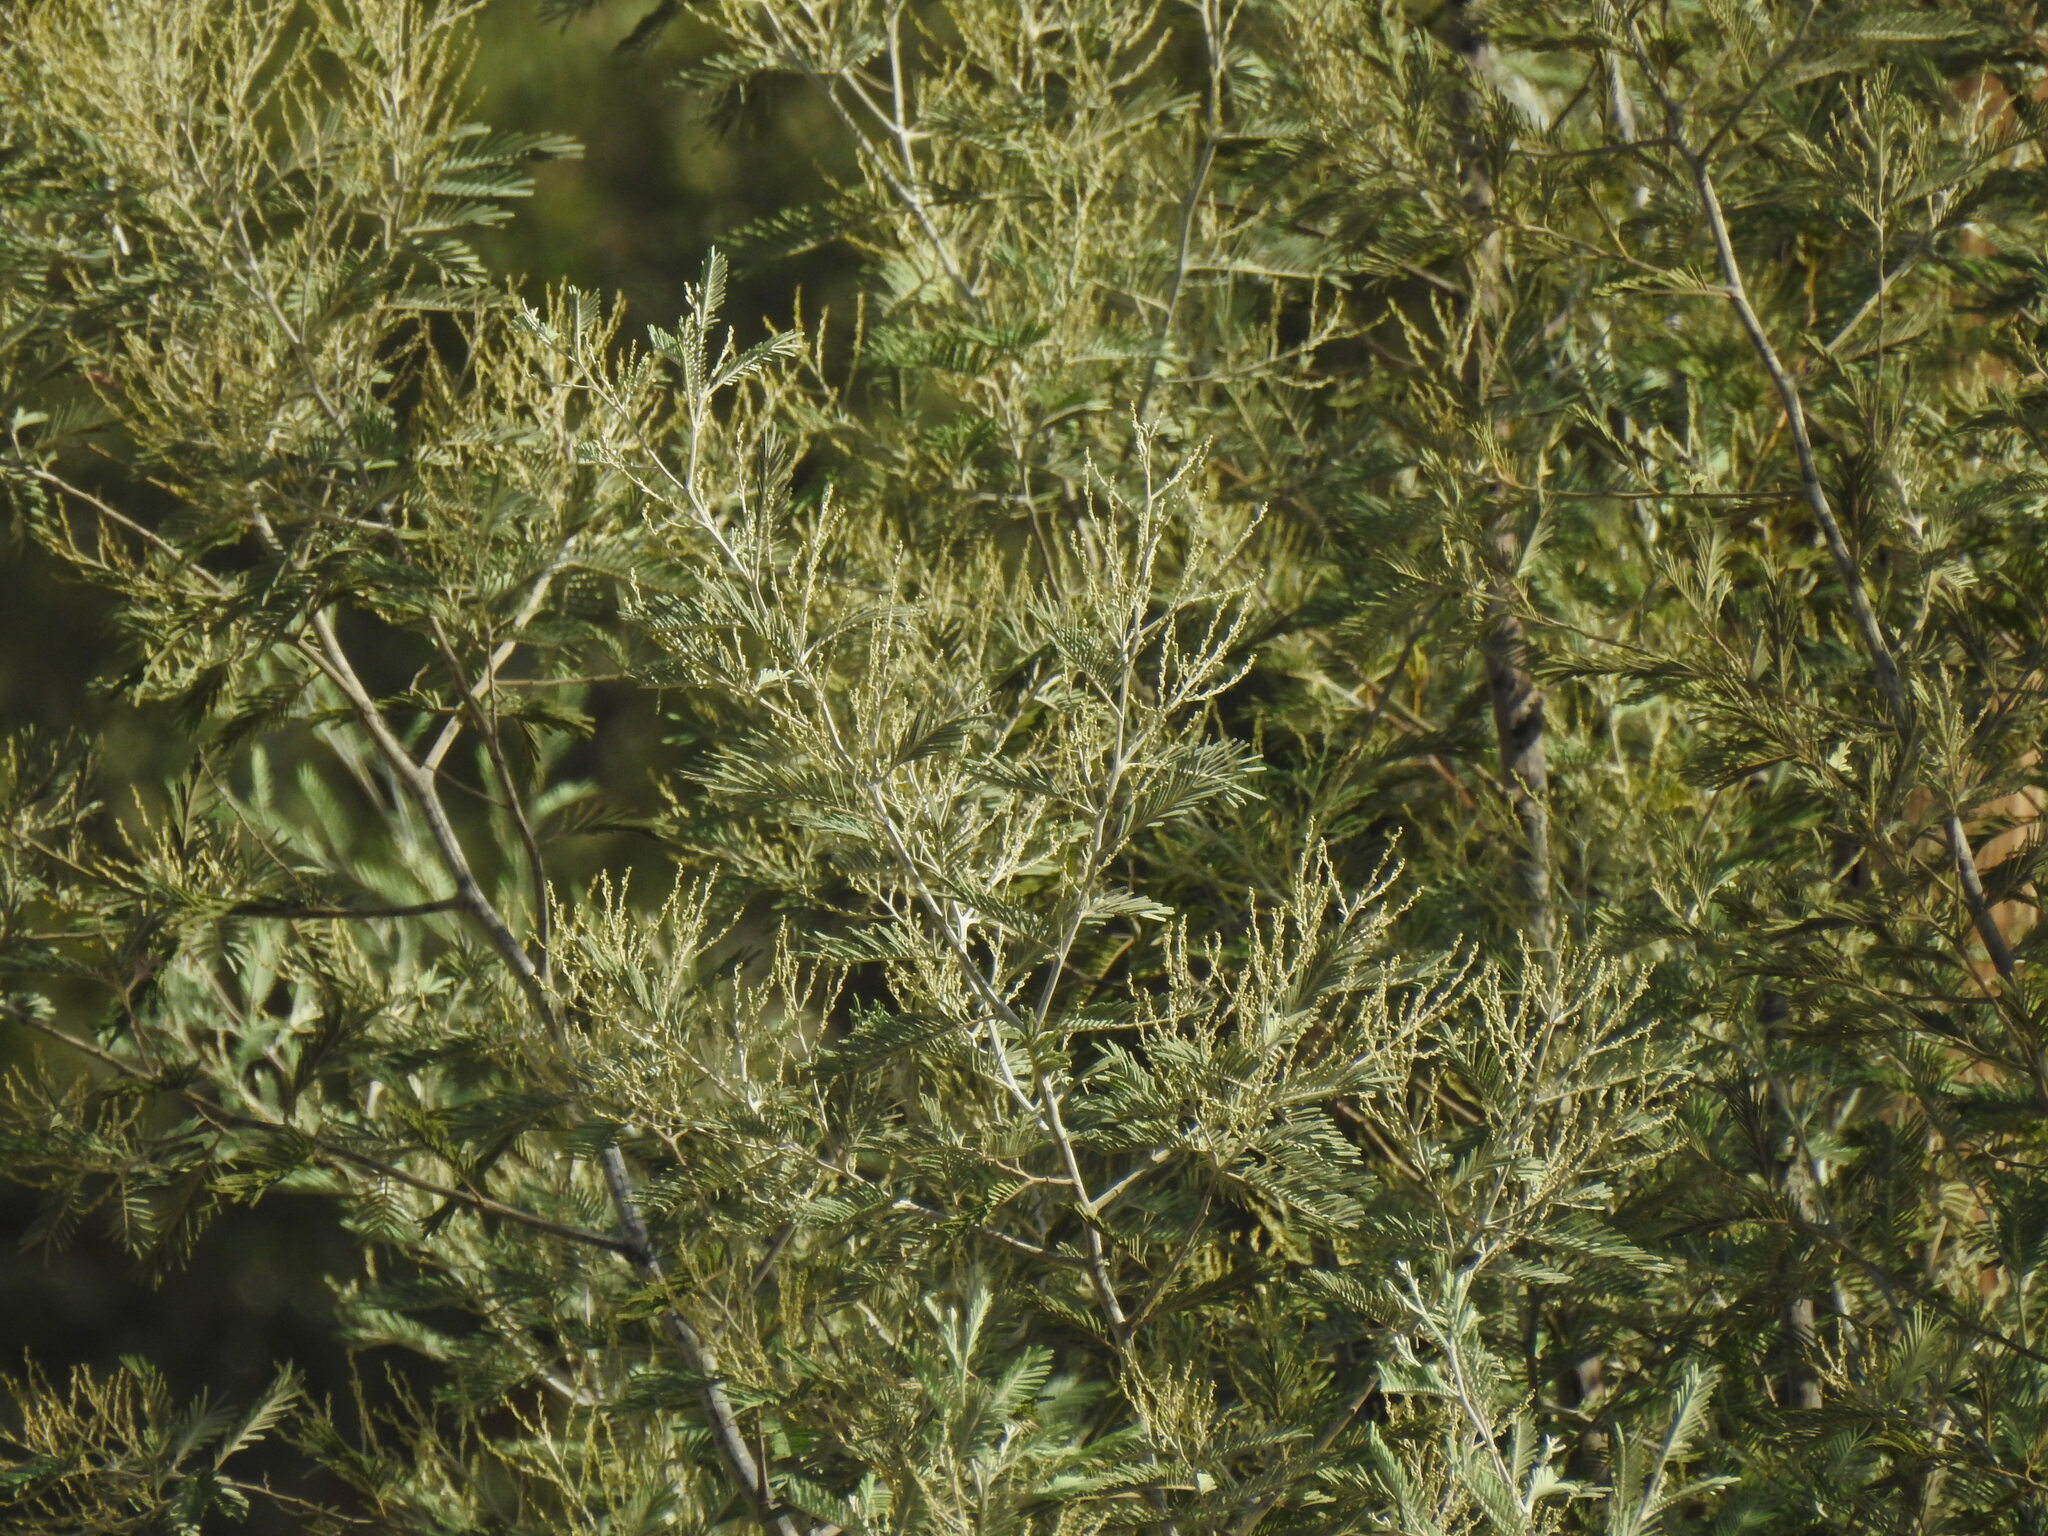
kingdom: Plantae
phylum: Tracheophyta
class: Magnoliopsida
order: Fabales
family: Fabaceae
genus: Acacia
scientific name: Acacia dealbata
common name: Silver wattle
